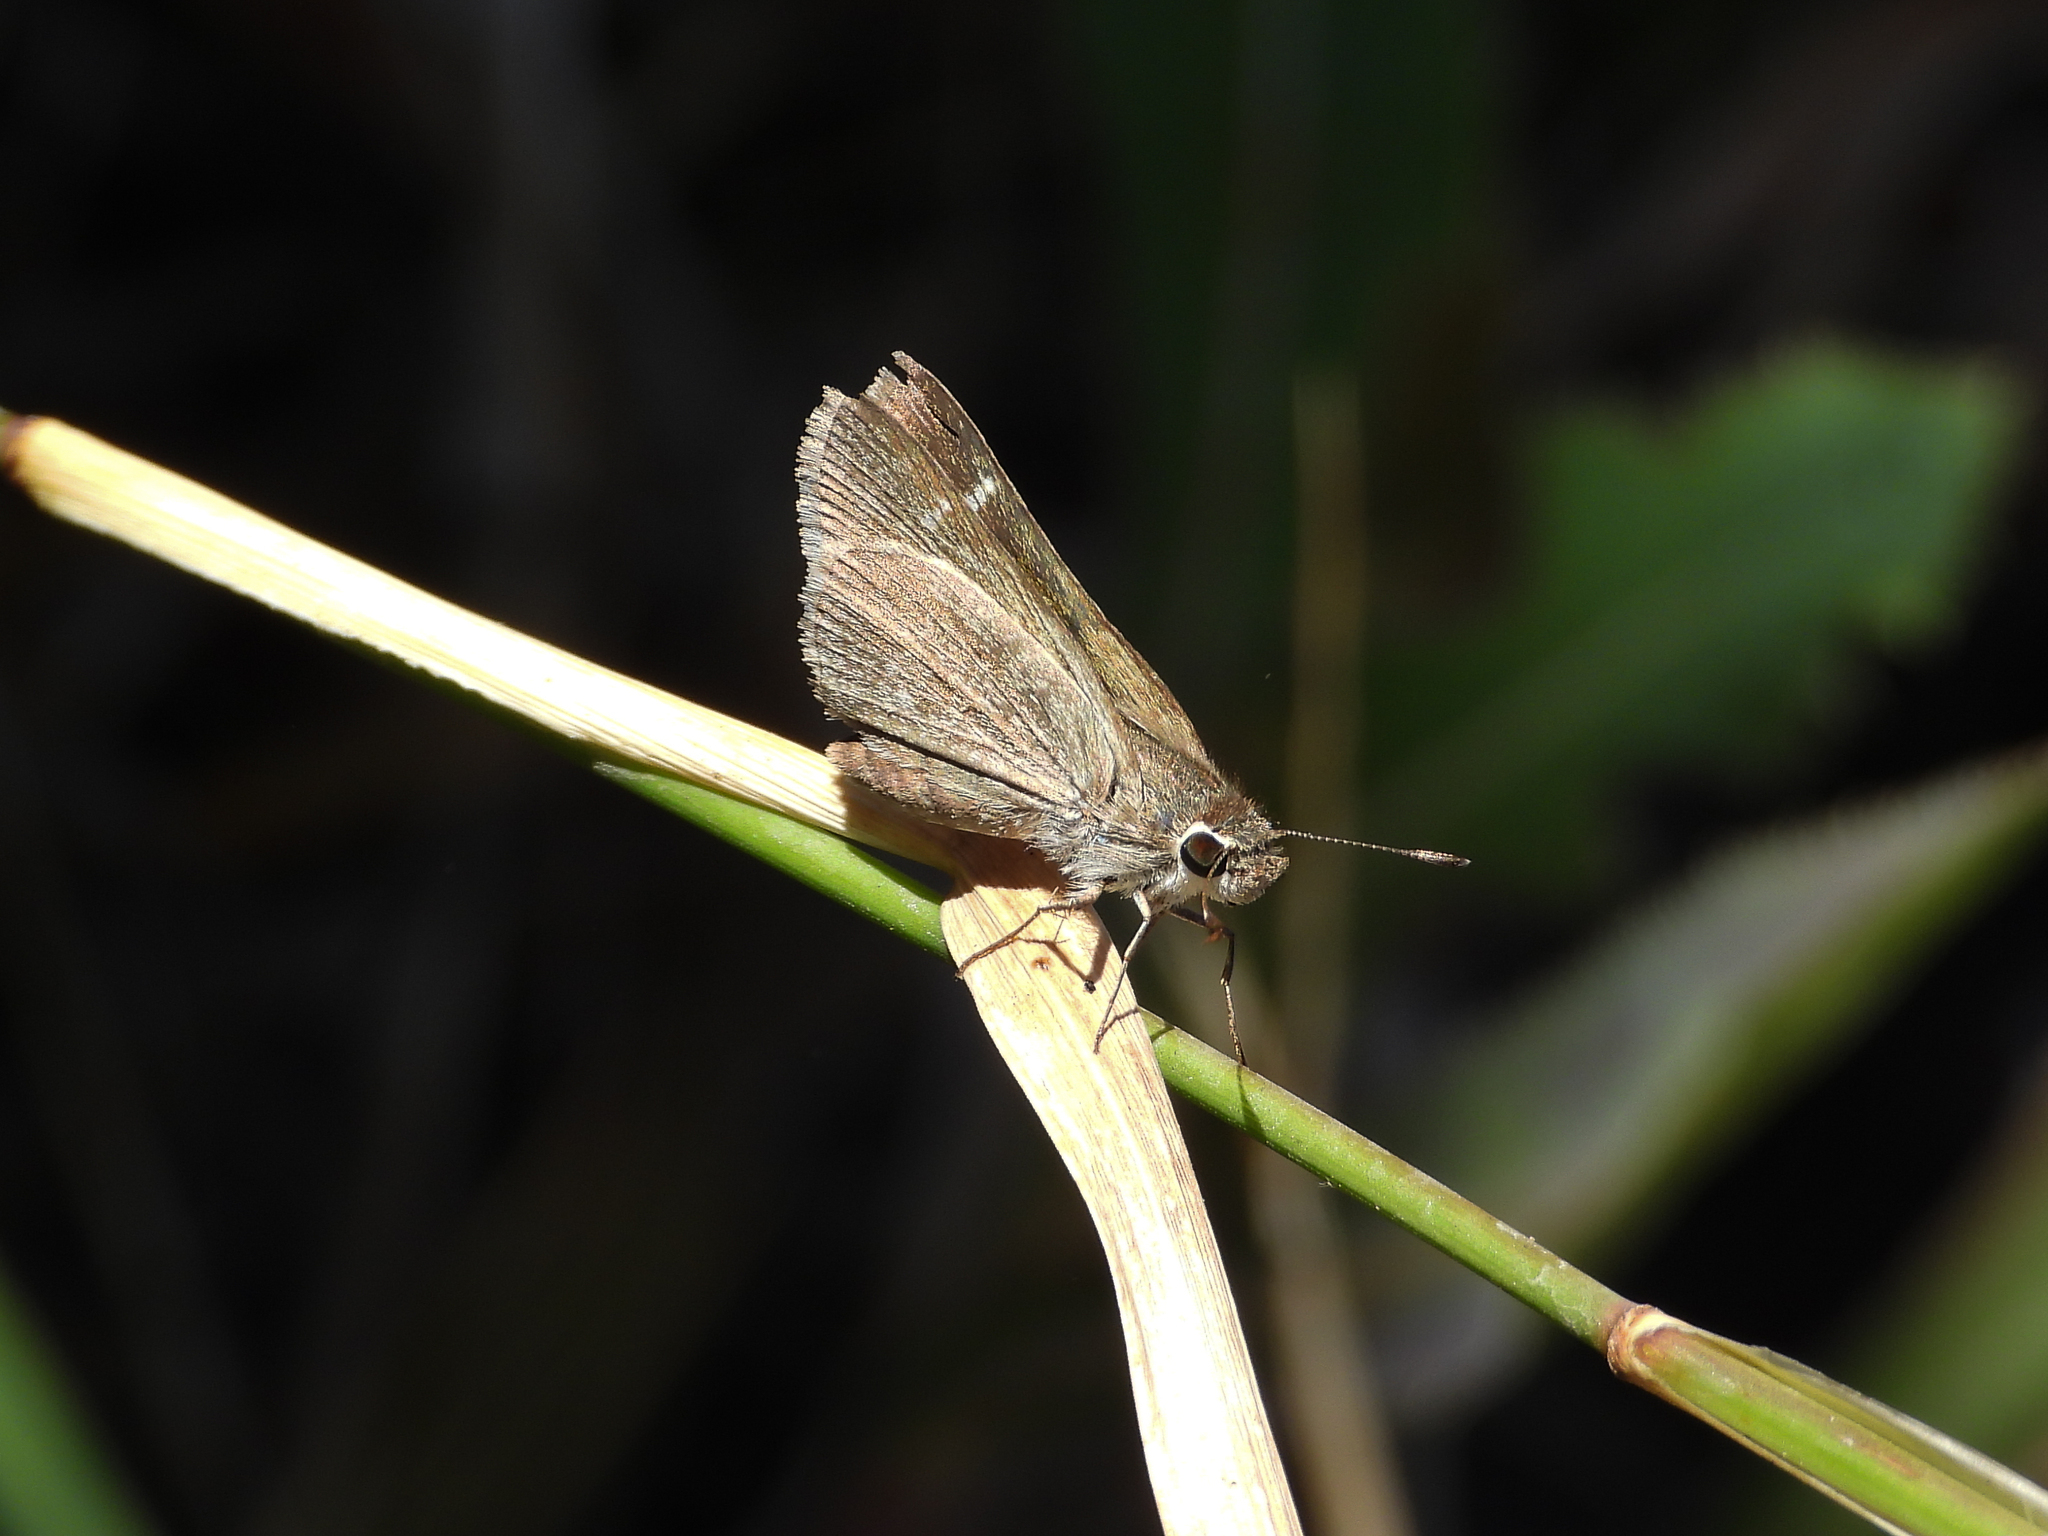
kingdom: Animalia
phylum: Arthropoda
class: Insecta
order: Lepidoptera
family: Hesperiidae
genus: Lerodea
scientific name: Lerodea eufala
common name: Eufala skipper
